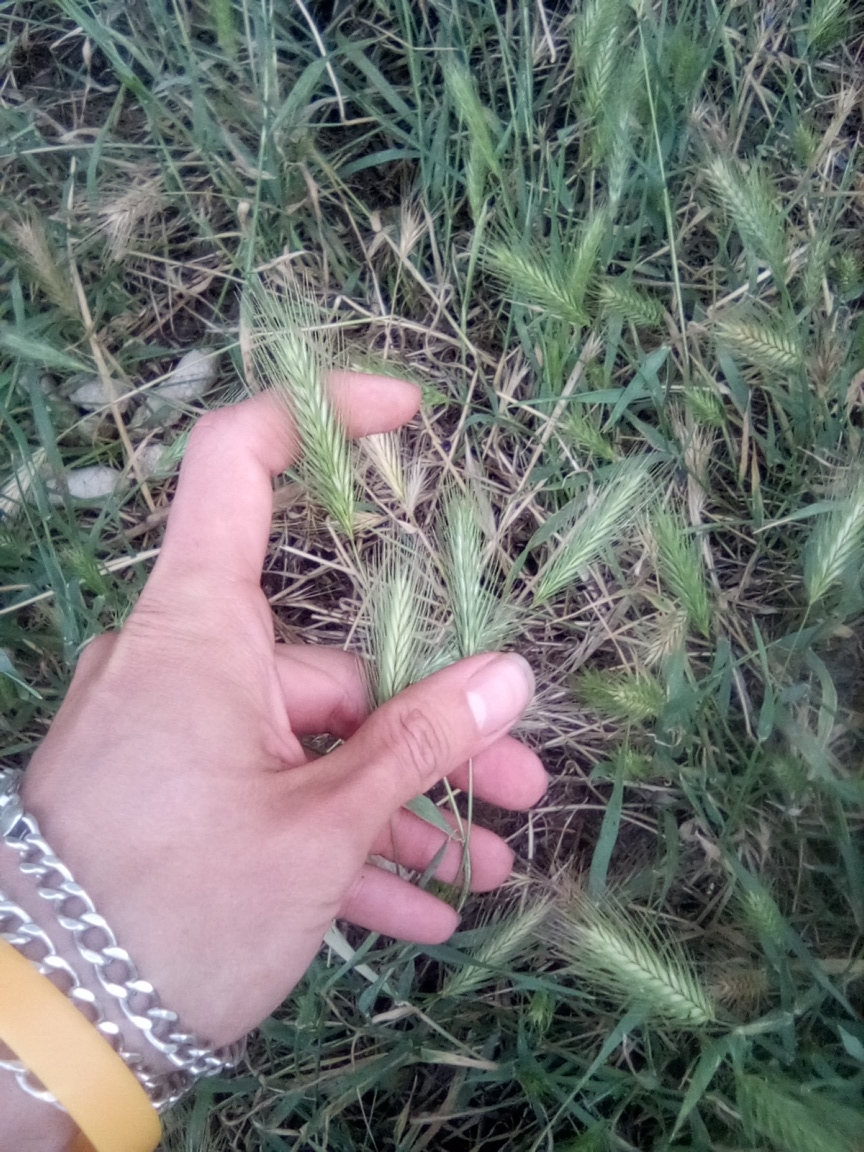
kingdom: Plantae
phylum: Tracheophyta
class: Liliopsida
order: Poales
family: Poaceae
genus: Hordeum
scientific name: Hordeum murinum
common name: Wall barley
